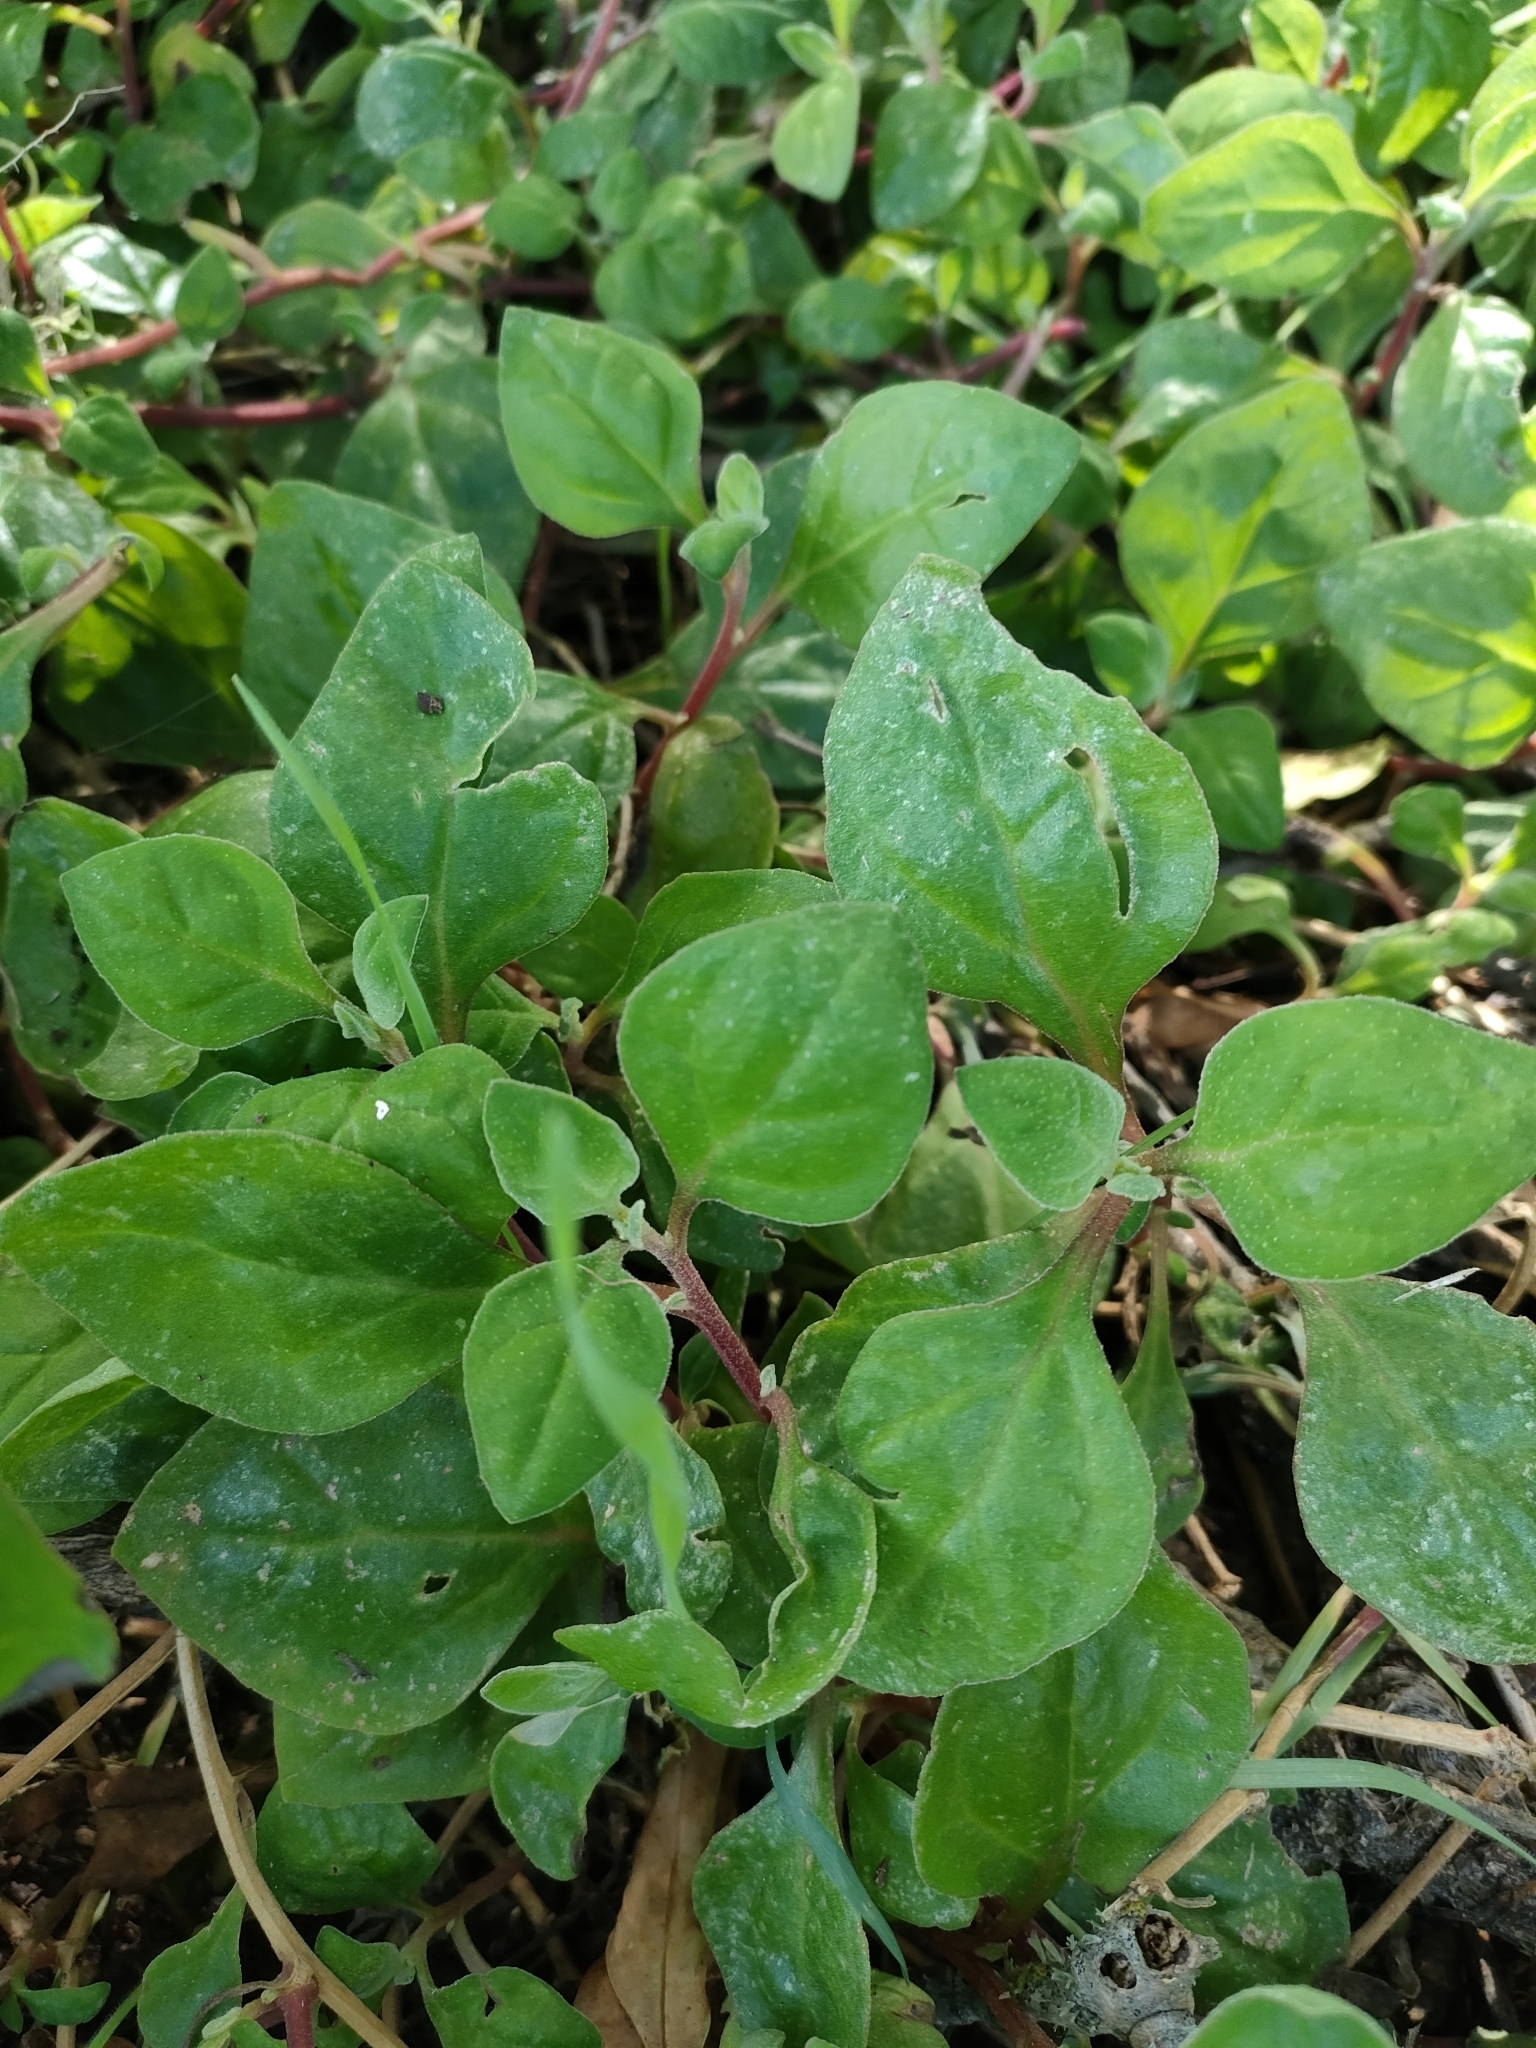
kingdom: Plantae
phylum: Tracheophyta
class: Magnoliopsida
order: Caryophyllales
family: Aizoaceae
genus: Tetragonia
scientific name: Tetragonia implexicoma
